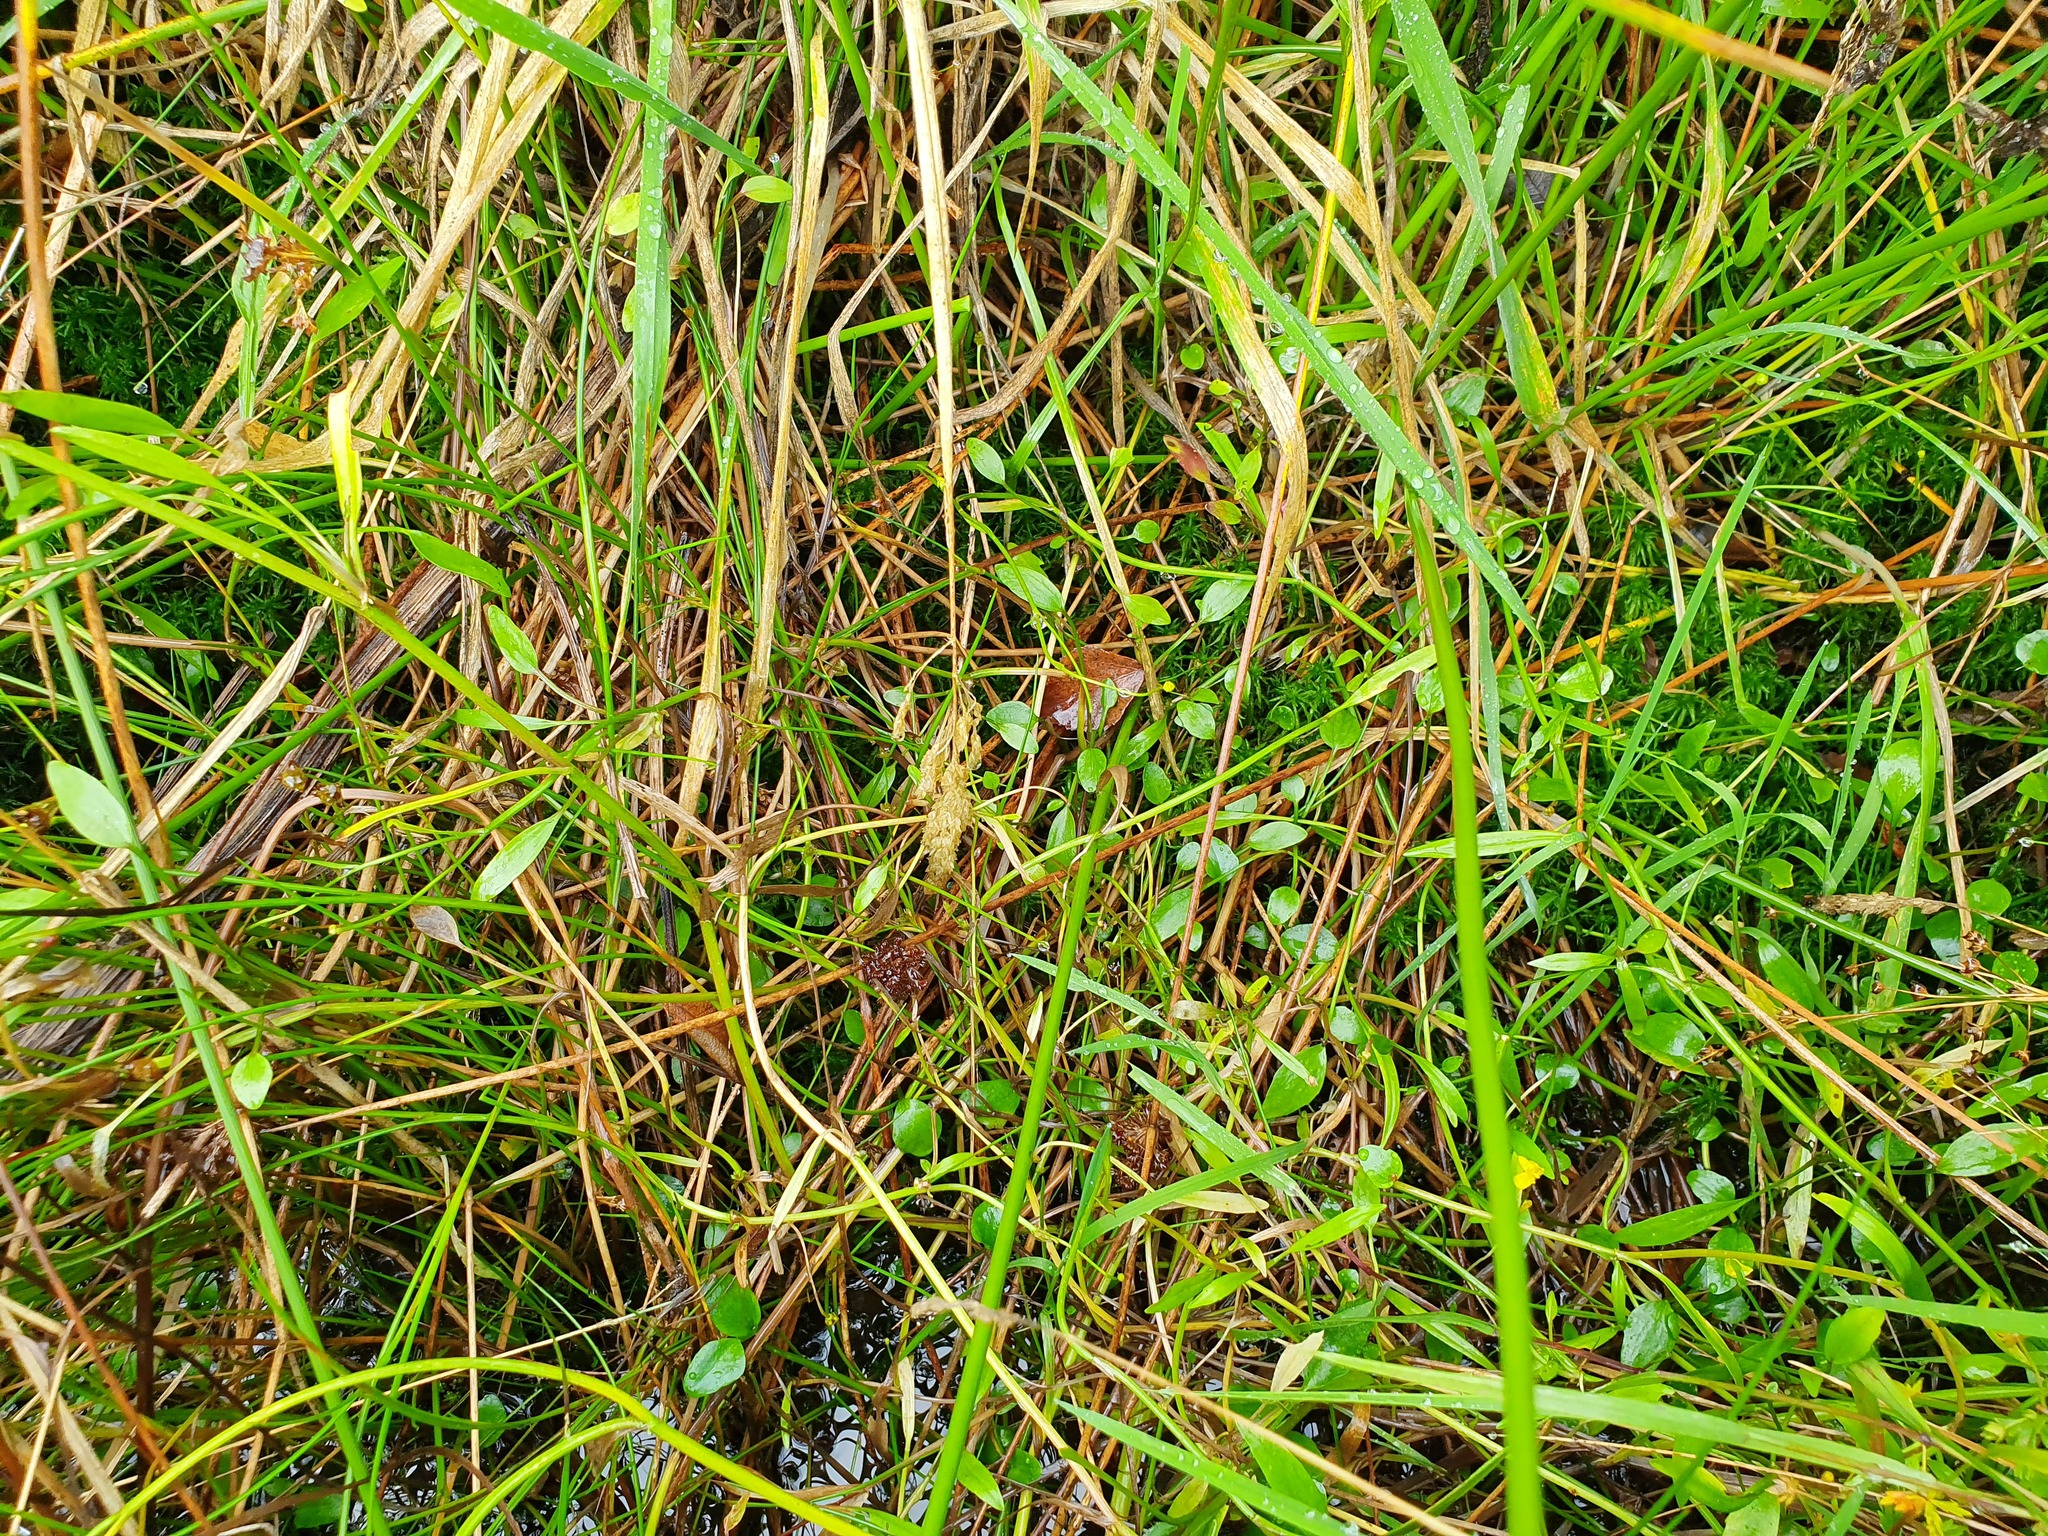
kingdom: Plantae
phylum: Tracheophyta
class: Magnoliopsida
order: Ranunculales
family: Ranunculaceae
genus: Ranunculus
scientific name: Ranunculus flammula
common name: Lesser spearwort
